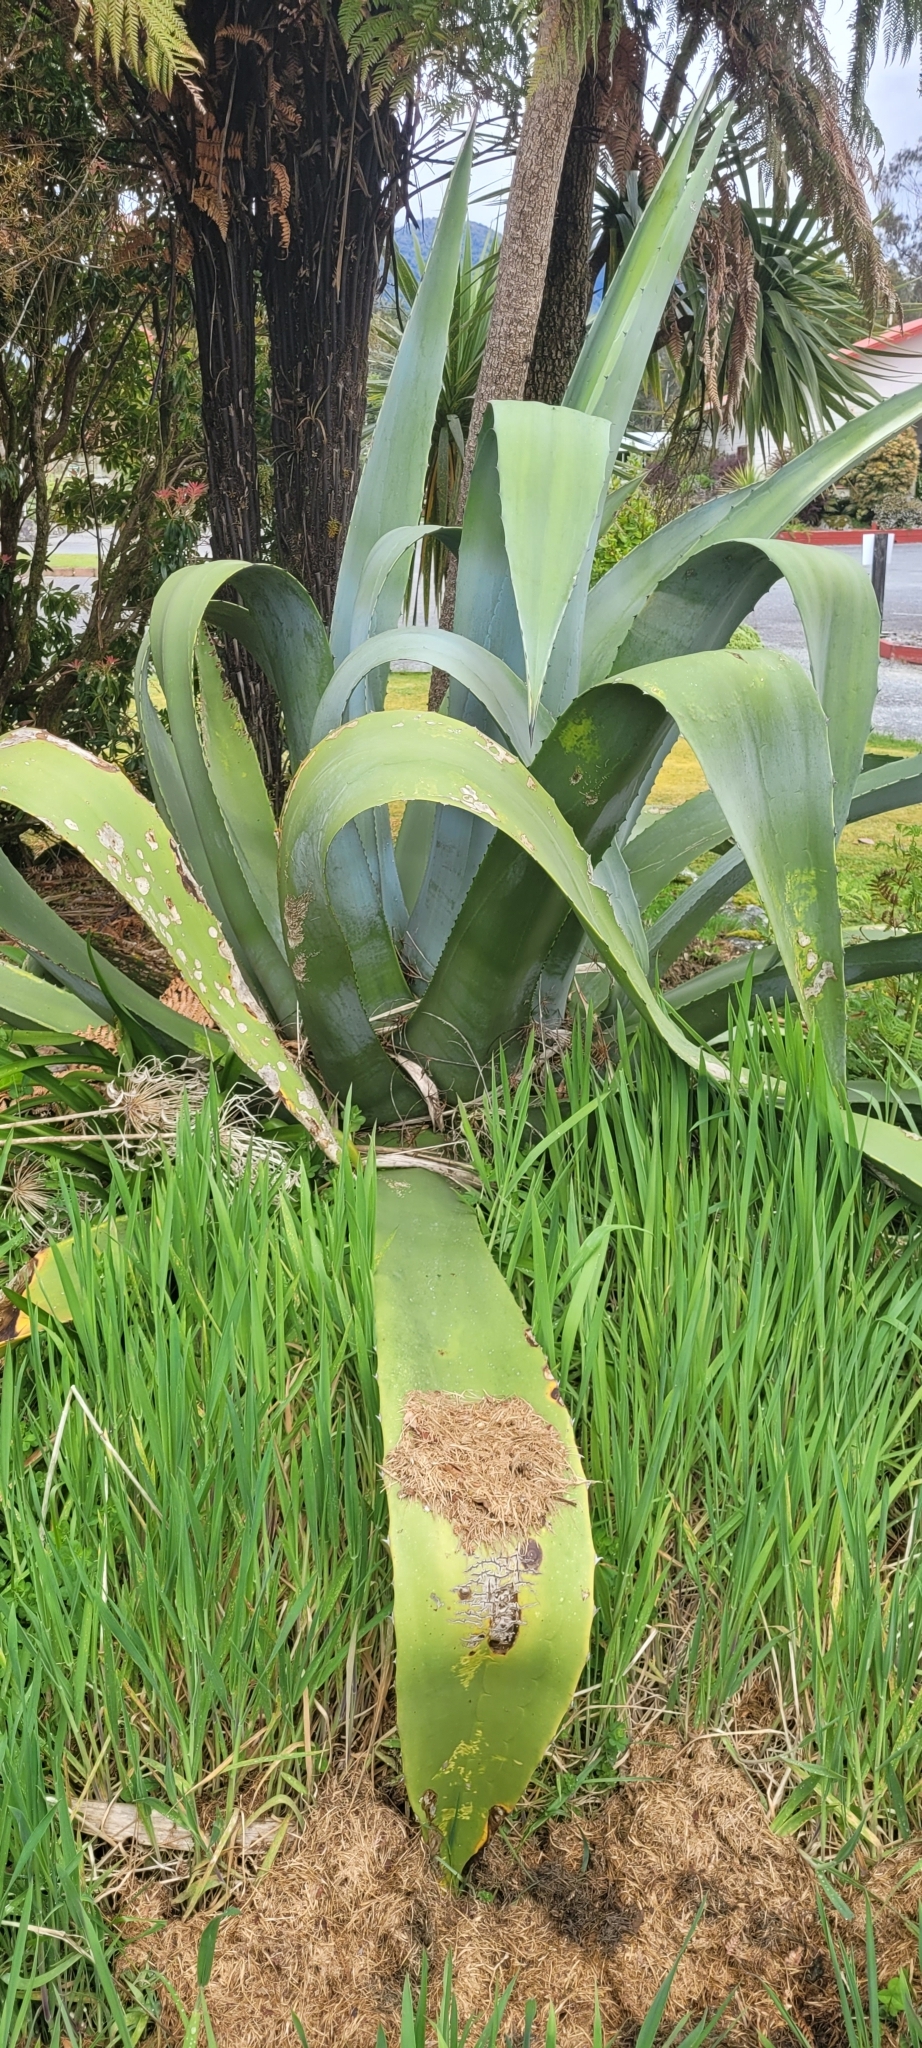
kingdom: Plantae
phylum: Tracheophyta
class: Liliopsida
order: Asparagales
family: Asparagaceae
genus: Agave
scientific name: Agave americana
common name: Centuryplant
